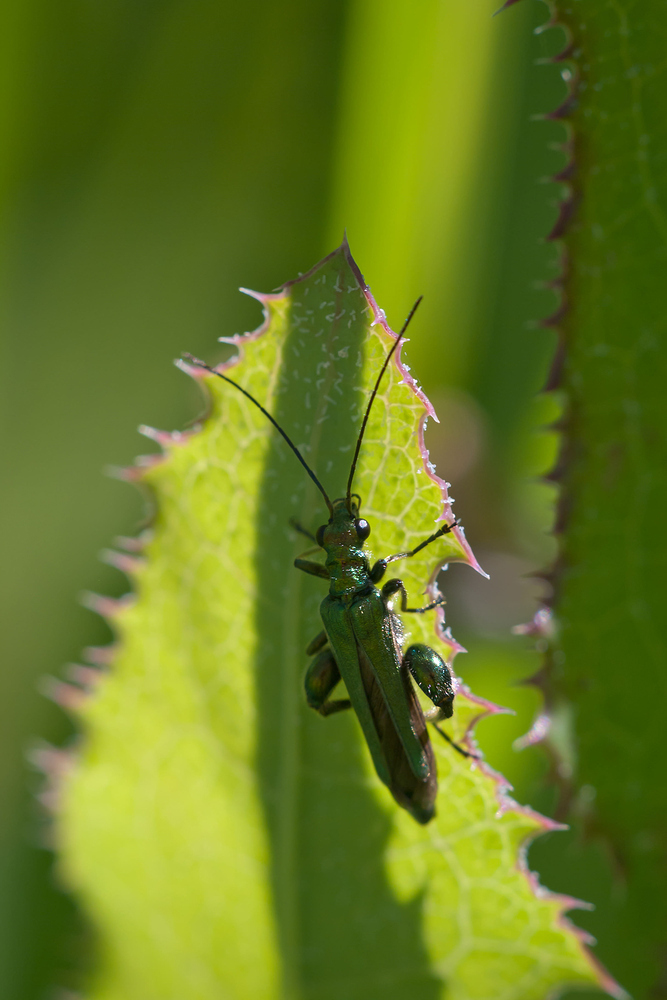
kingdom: Animalia
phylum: Arthropoda
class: Insecta
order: Coleoptera
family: Oedemeridae
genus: Oedemera
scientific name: Oedemera nobilis
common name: Swollen-thighed beetle
